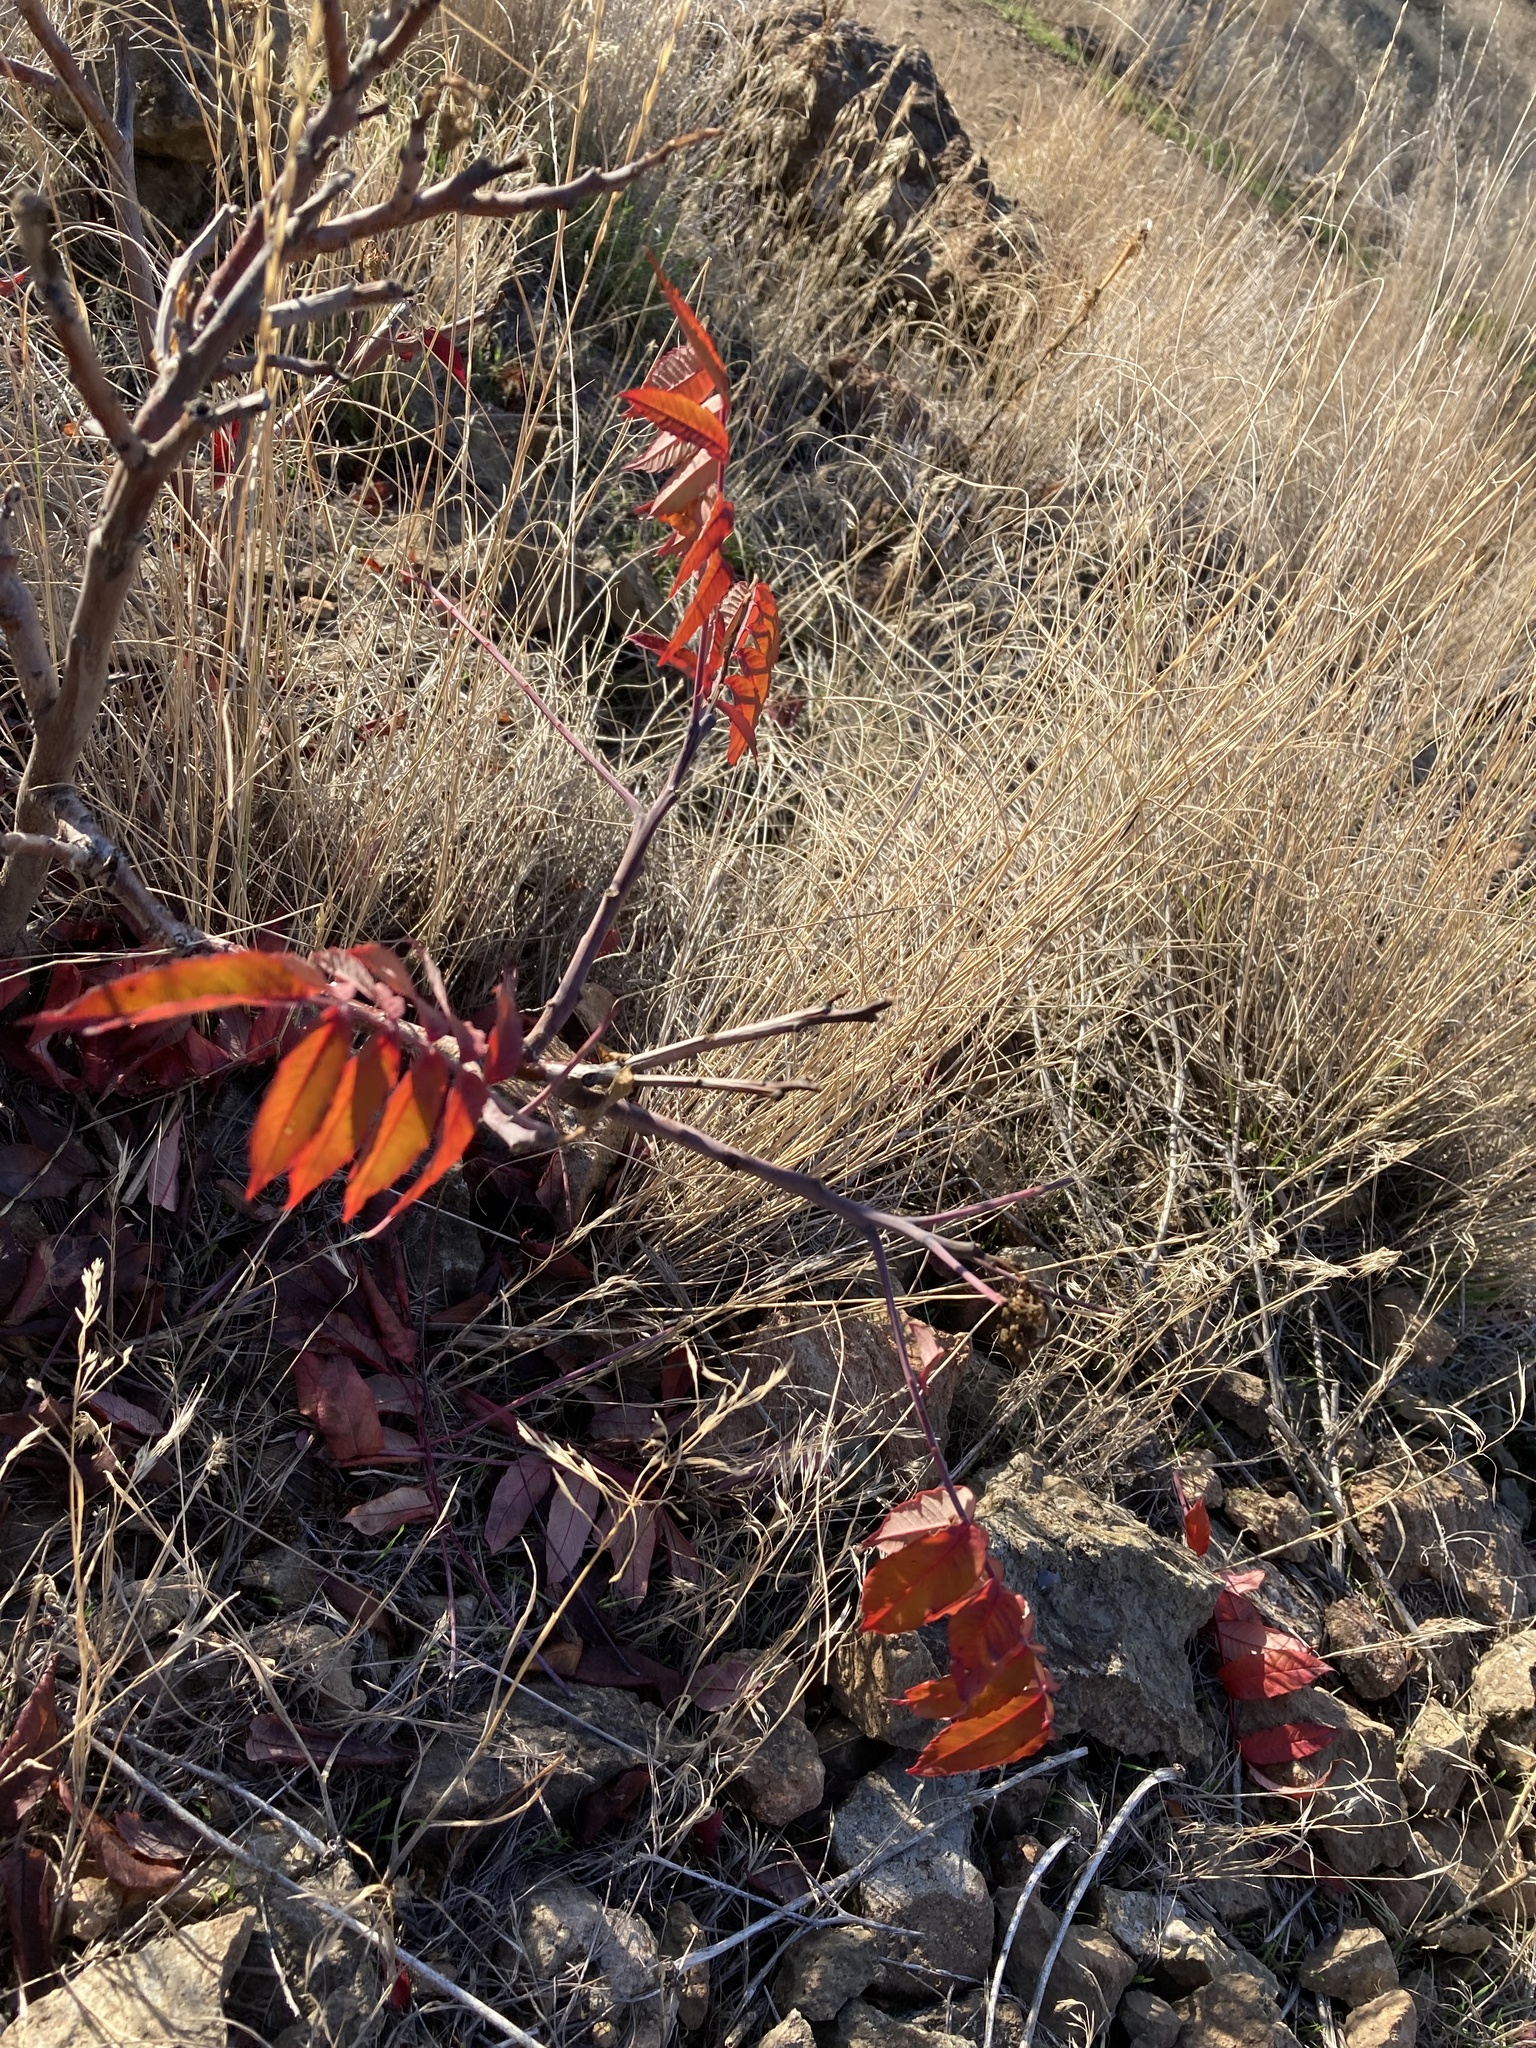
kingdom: Plantae
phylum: Tracheophyta
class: Magnoliopsida
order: Sapindales
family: Anacardiaceae
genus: Rhus
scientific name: Rhus glabra
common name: Scarlet sumac
